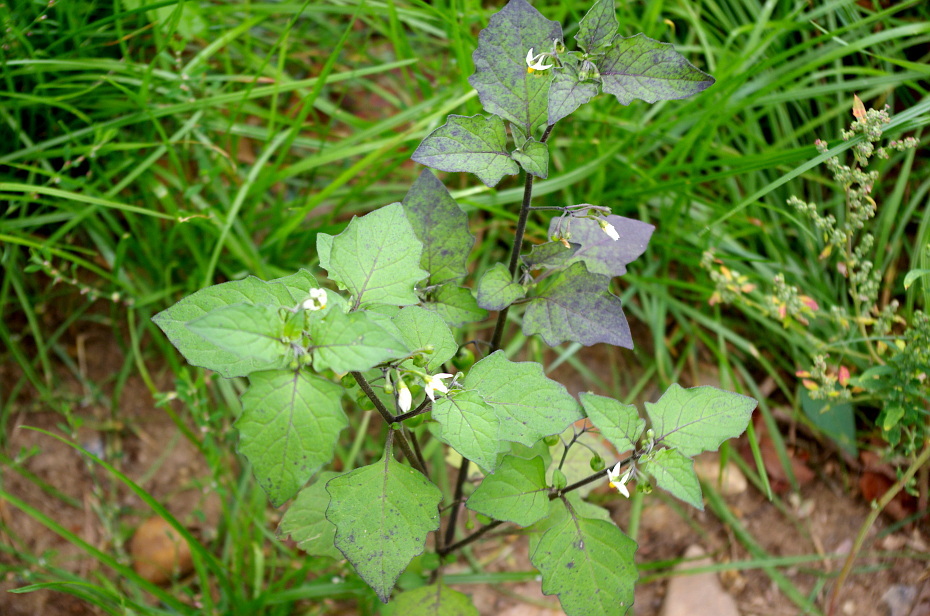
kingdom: Plantae
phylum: Tracheophyta
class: Magnoliopsida
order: Solanales
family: Solanaceae
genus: Solanum
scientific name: Solanum nigrum
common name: Black nightshade
